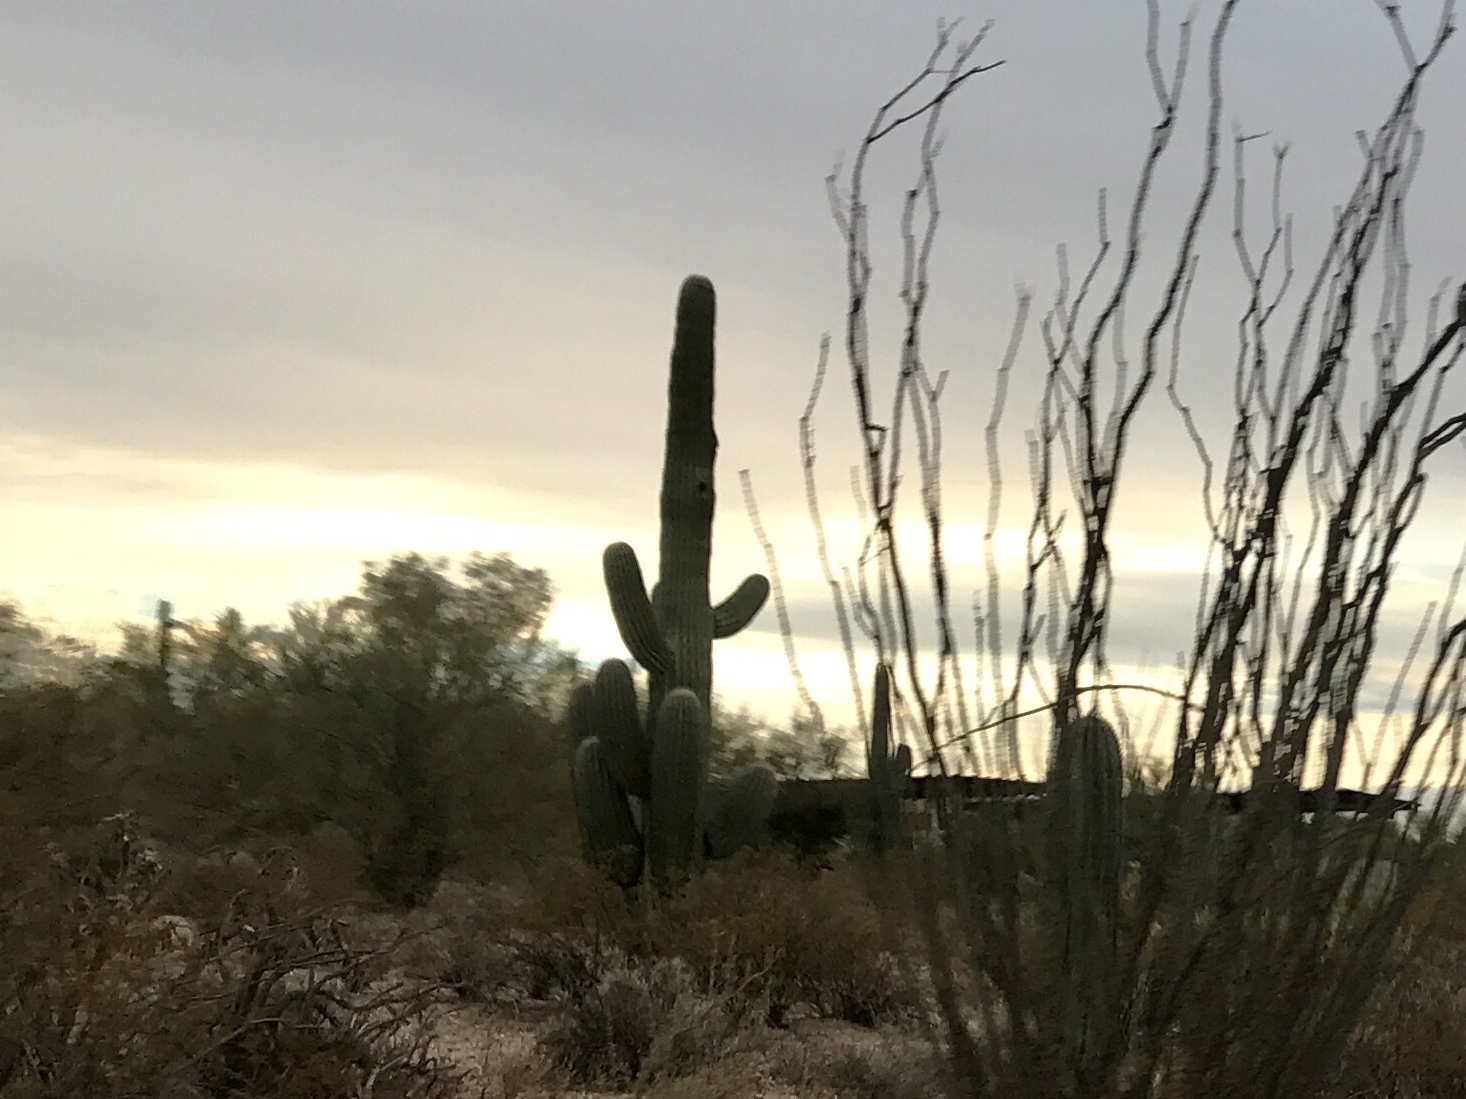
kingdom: Plantae
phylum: Tracheophyta
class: Magnoliopsida
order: Caryophyllales
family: Cactaceae
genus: Carnegiea
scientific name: Carnegiea gigantea
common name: Saguaro
